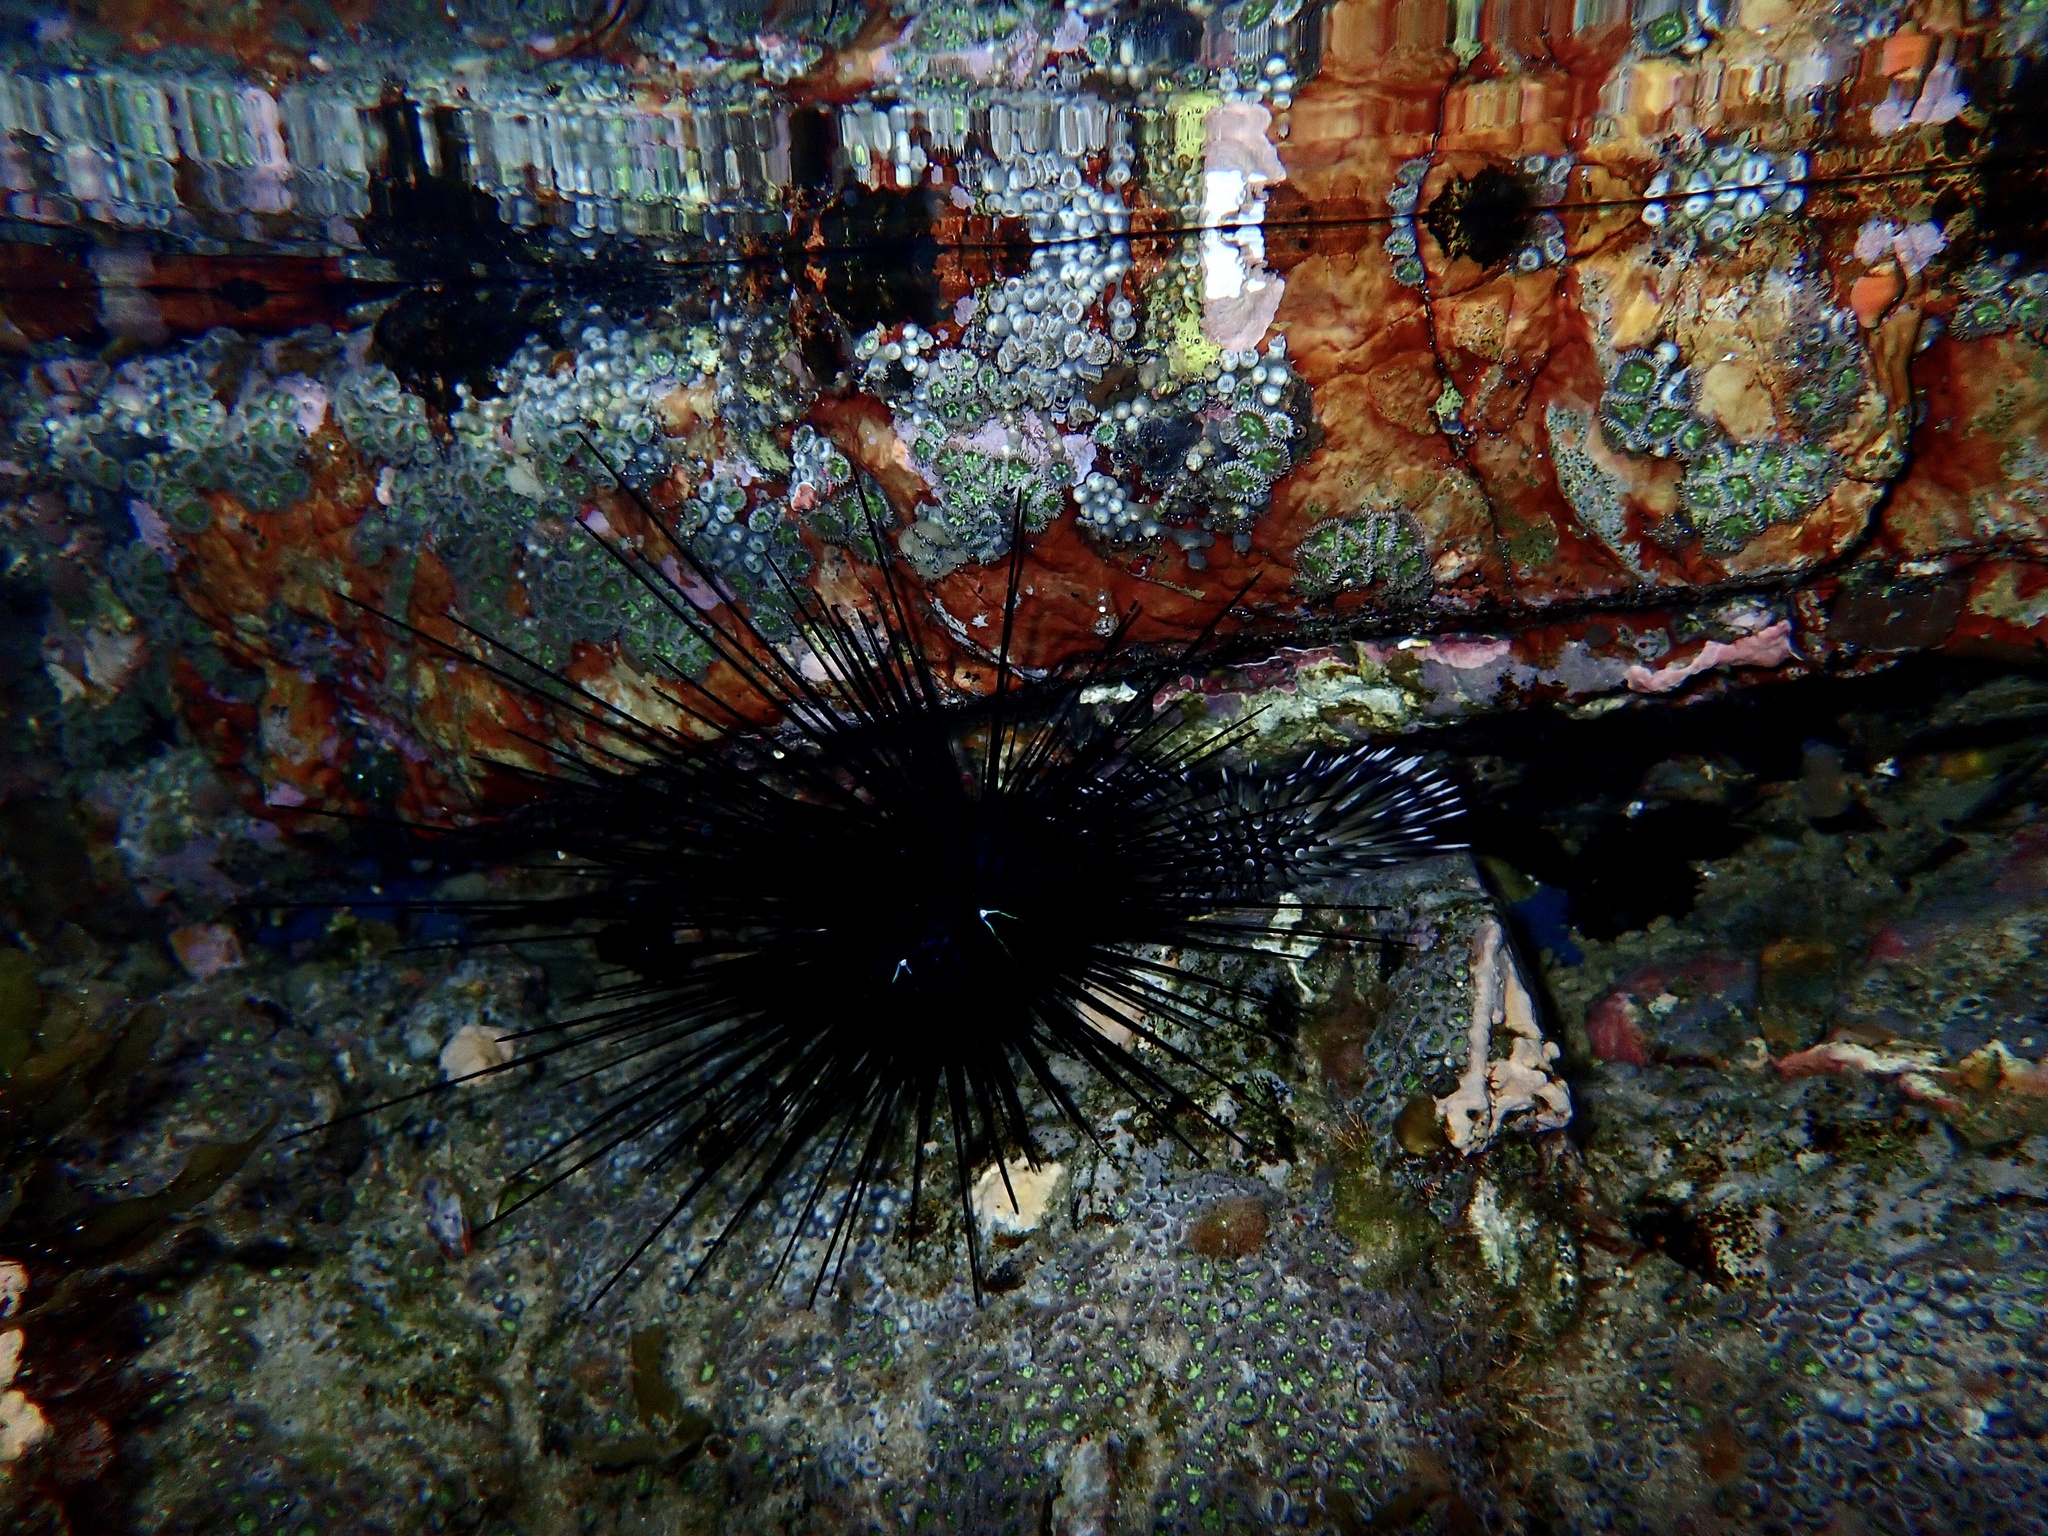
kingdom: Animalia
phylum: Echinodermata
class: Echinoidea
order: Diadematoida
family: Diadematidae
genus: Diadema
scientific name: Diadema savignyi
